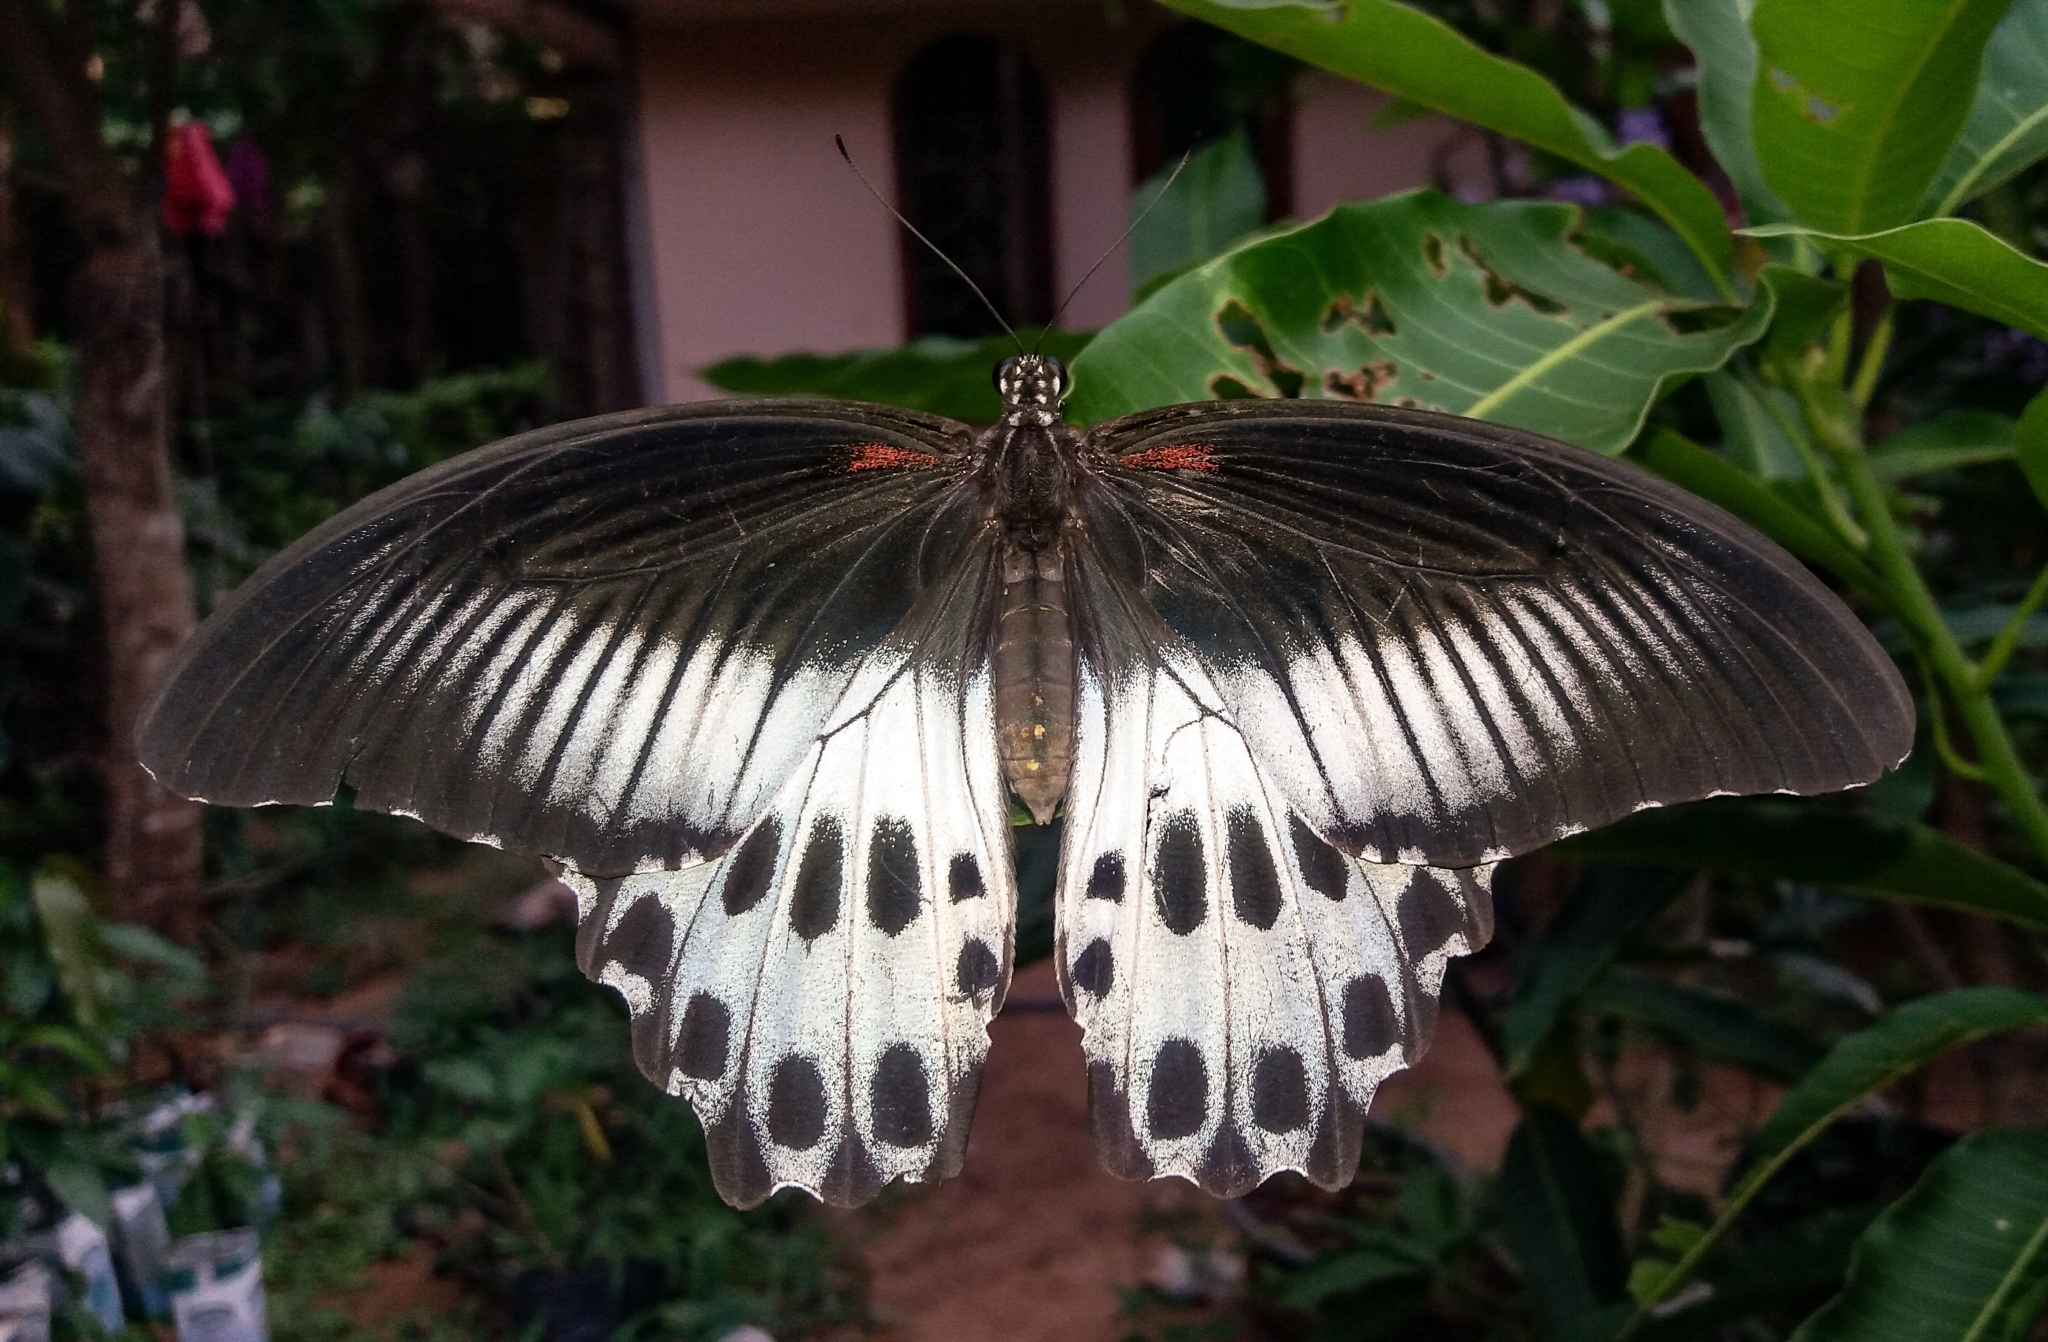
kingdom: Animalia
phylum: Arthropoda
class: Insecta
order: Lepidoptera
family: Papilionidae
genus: Papilio
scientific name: Papilio memnon
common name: Great mormon
